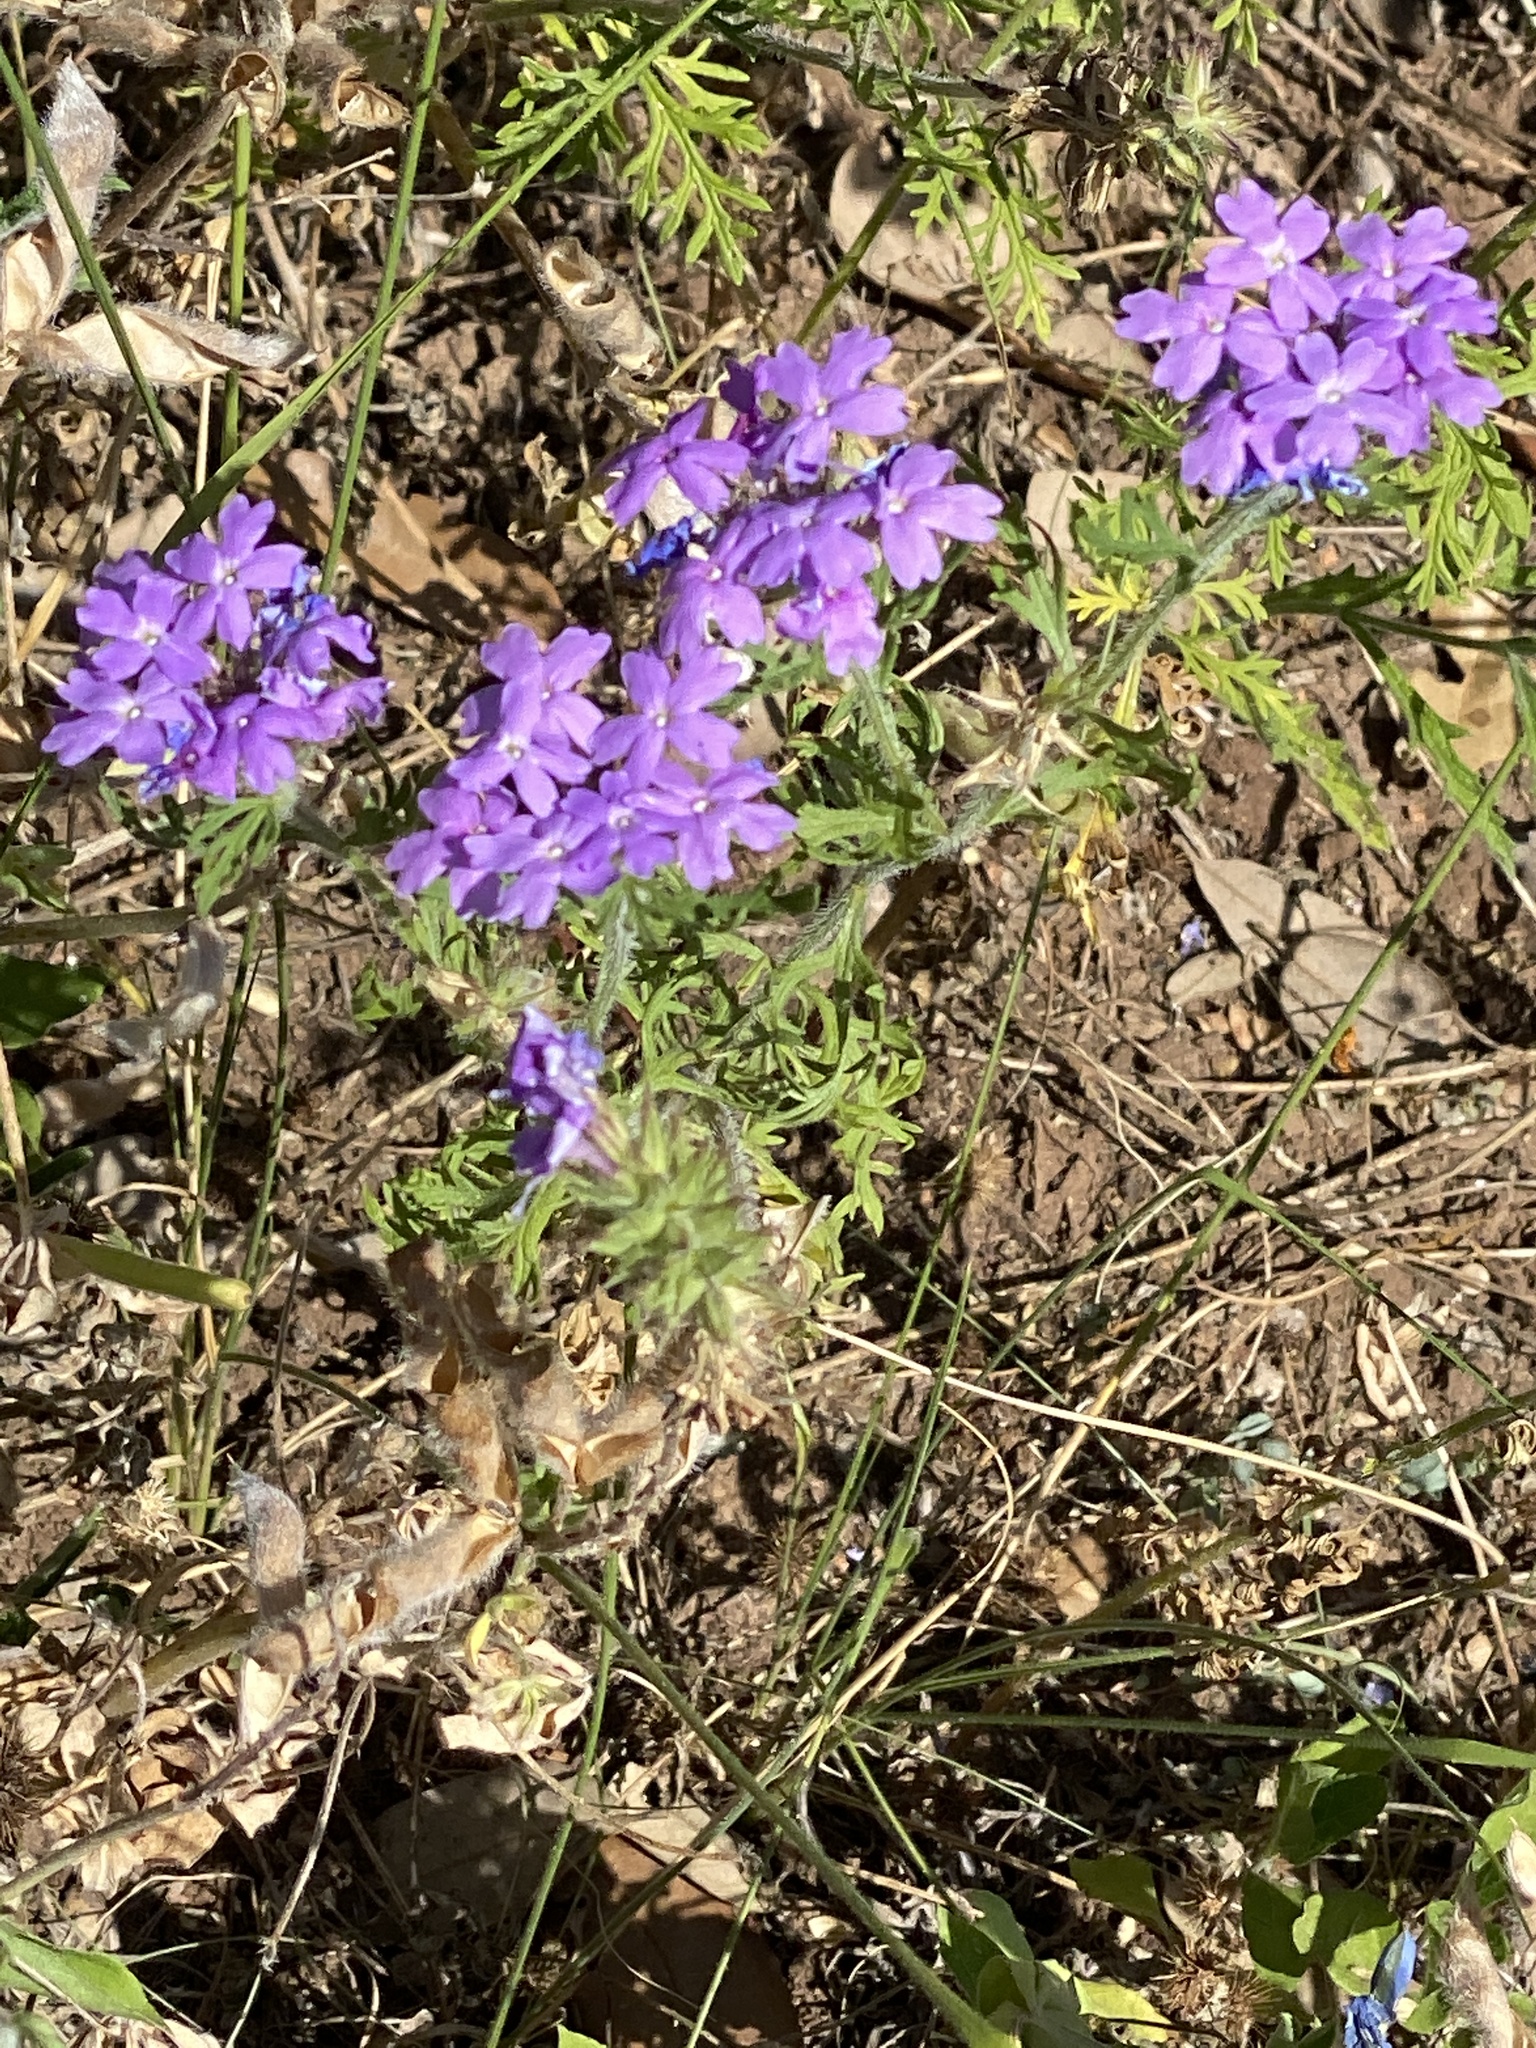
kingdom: Plantae
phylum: Tracheophyta
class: Magnoliopsida
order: Lamiales
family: Verbenaceae
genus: Verbena
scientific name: Verbena bipinnatifida
